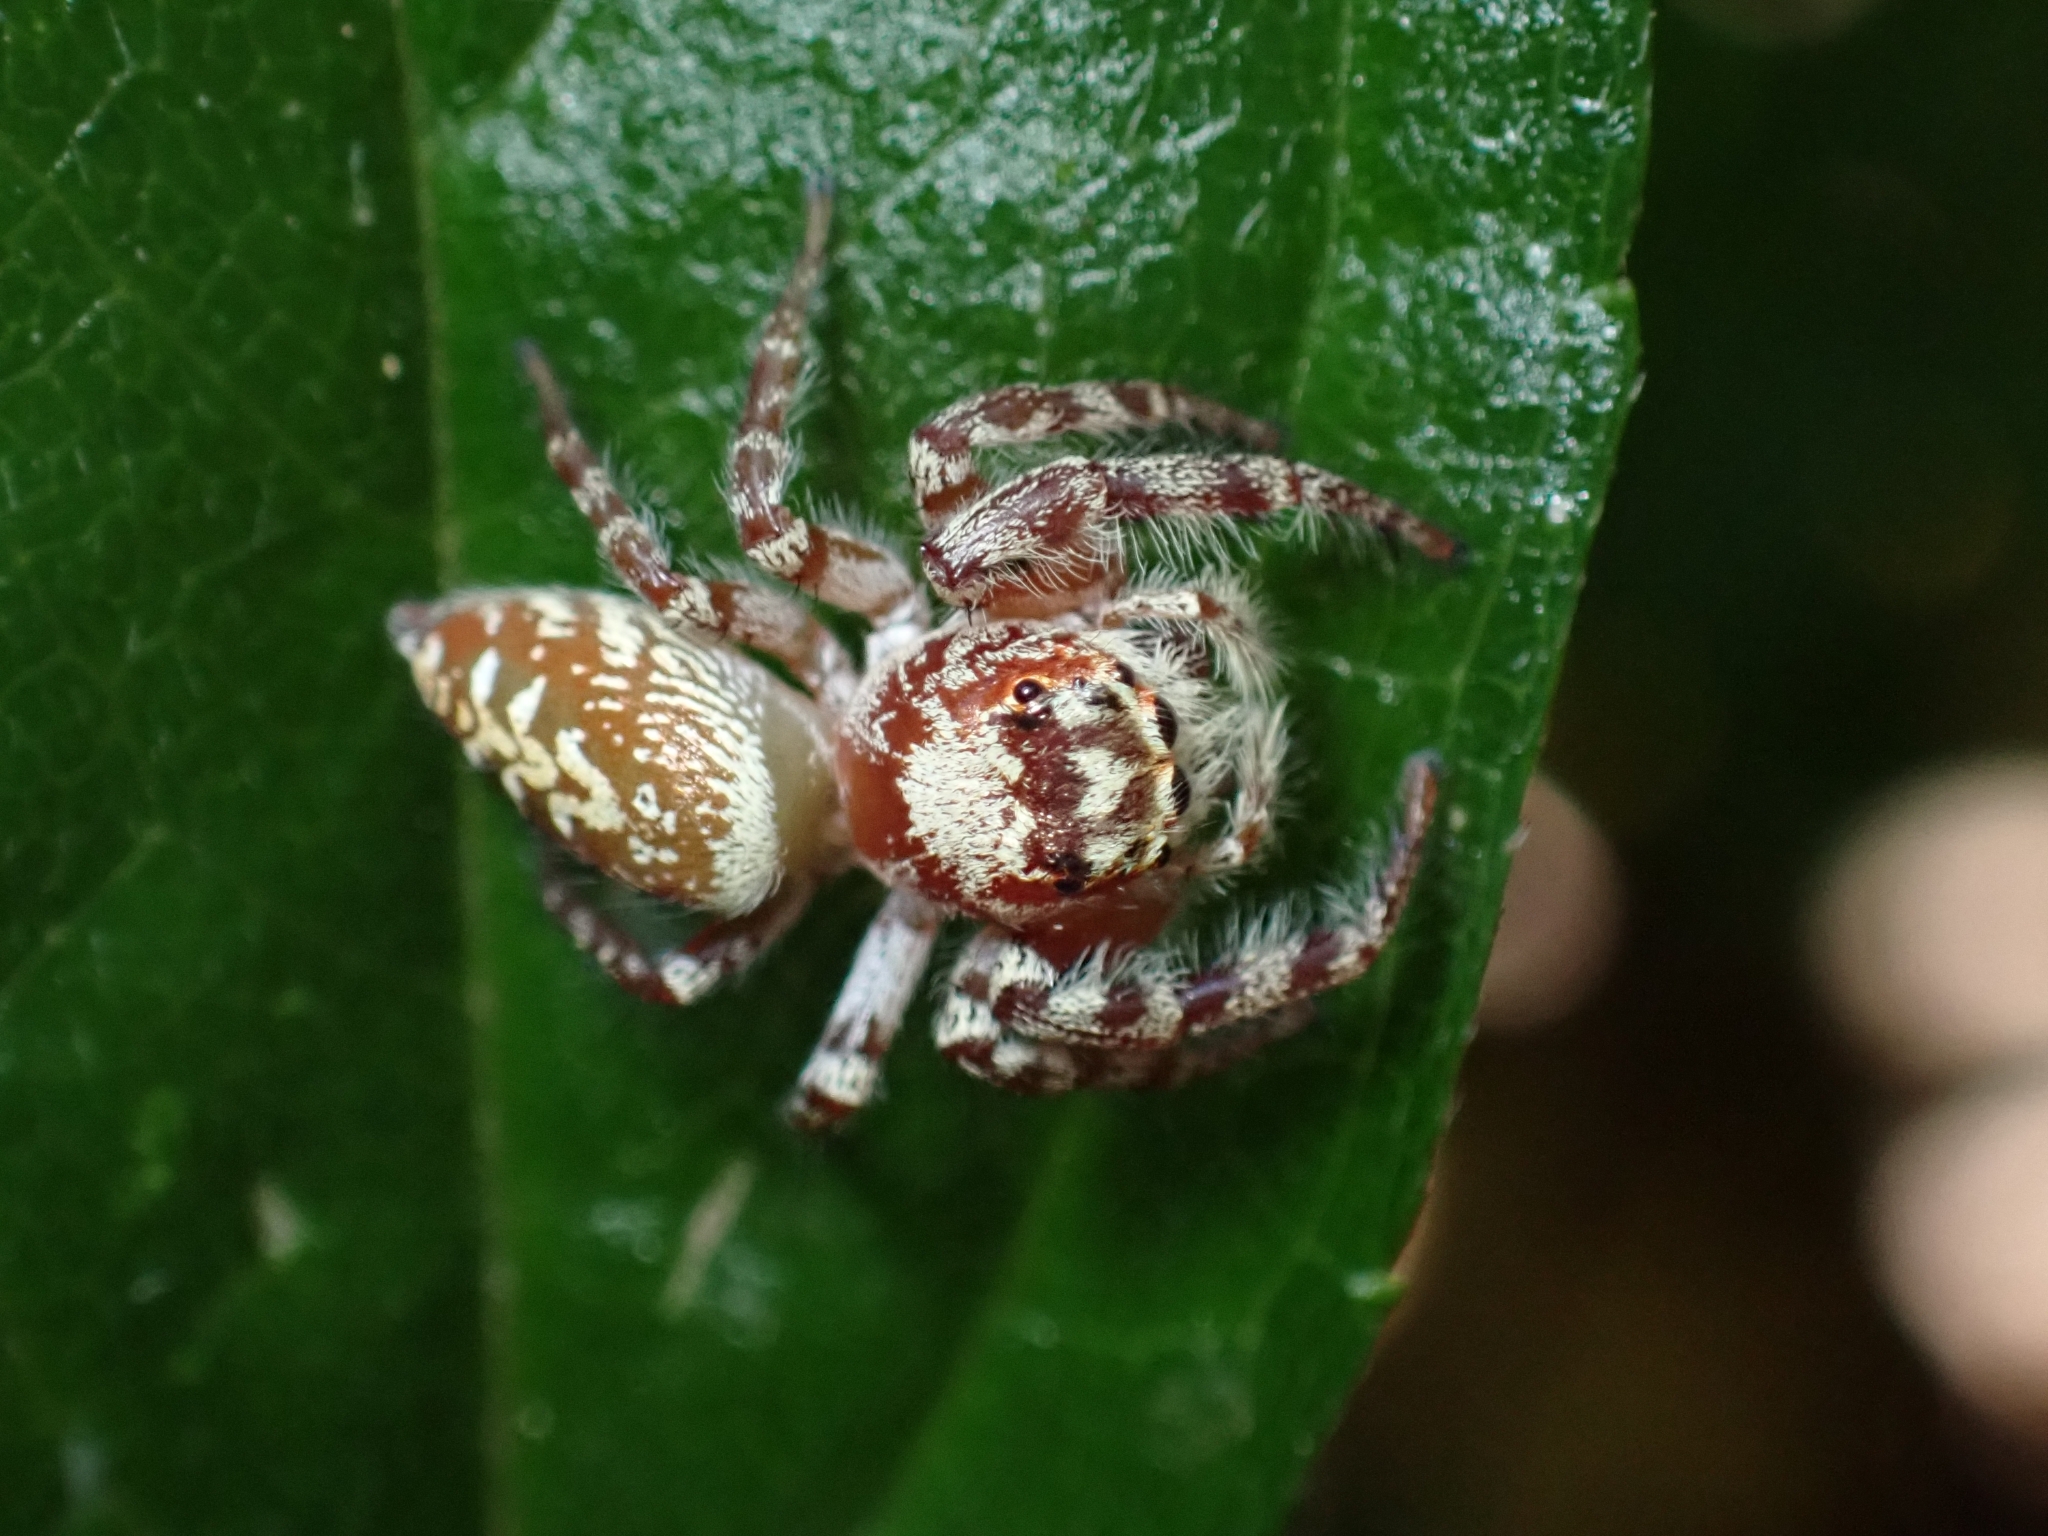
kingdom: Animalia
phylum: Arthropoda
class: Arachnida
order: Araneae
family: Salticidae
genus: Opisthoncus
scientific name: Opisthoncus quadratarius
